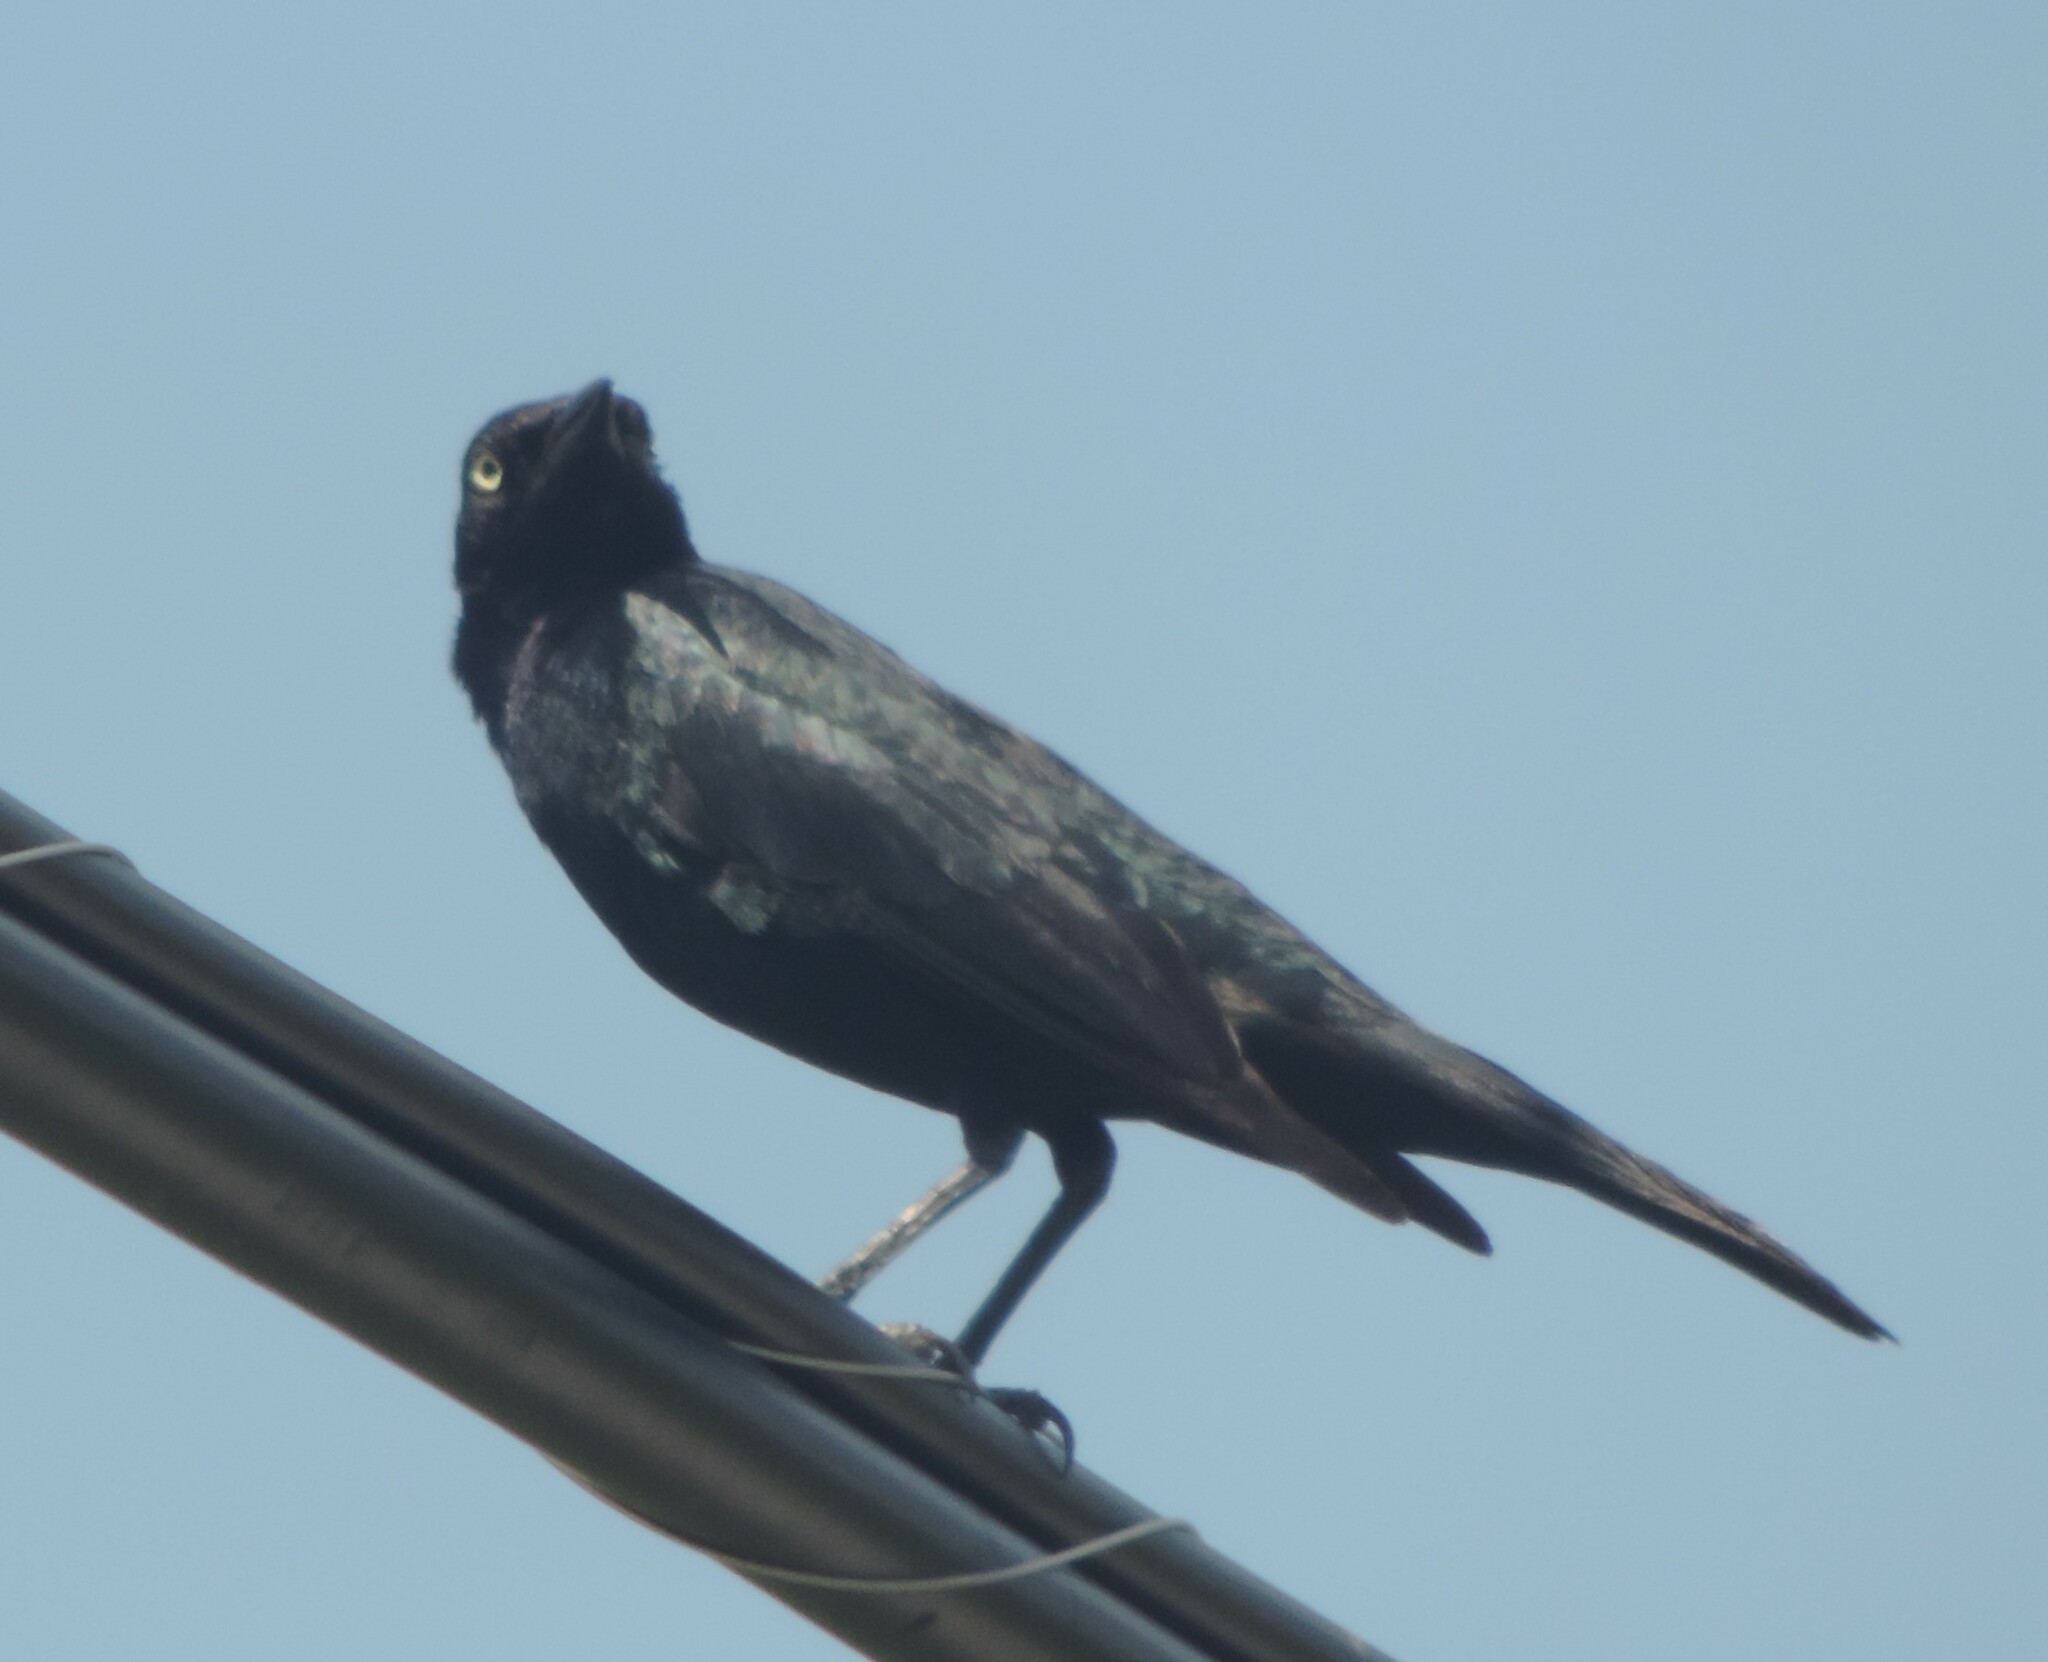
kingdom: Animalia
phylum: Chordata
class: Aves
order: Passeriformes
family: Icteridae
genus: Euphagus
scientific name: Euphagus cyanocephalus
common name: Brewer's blackbird
